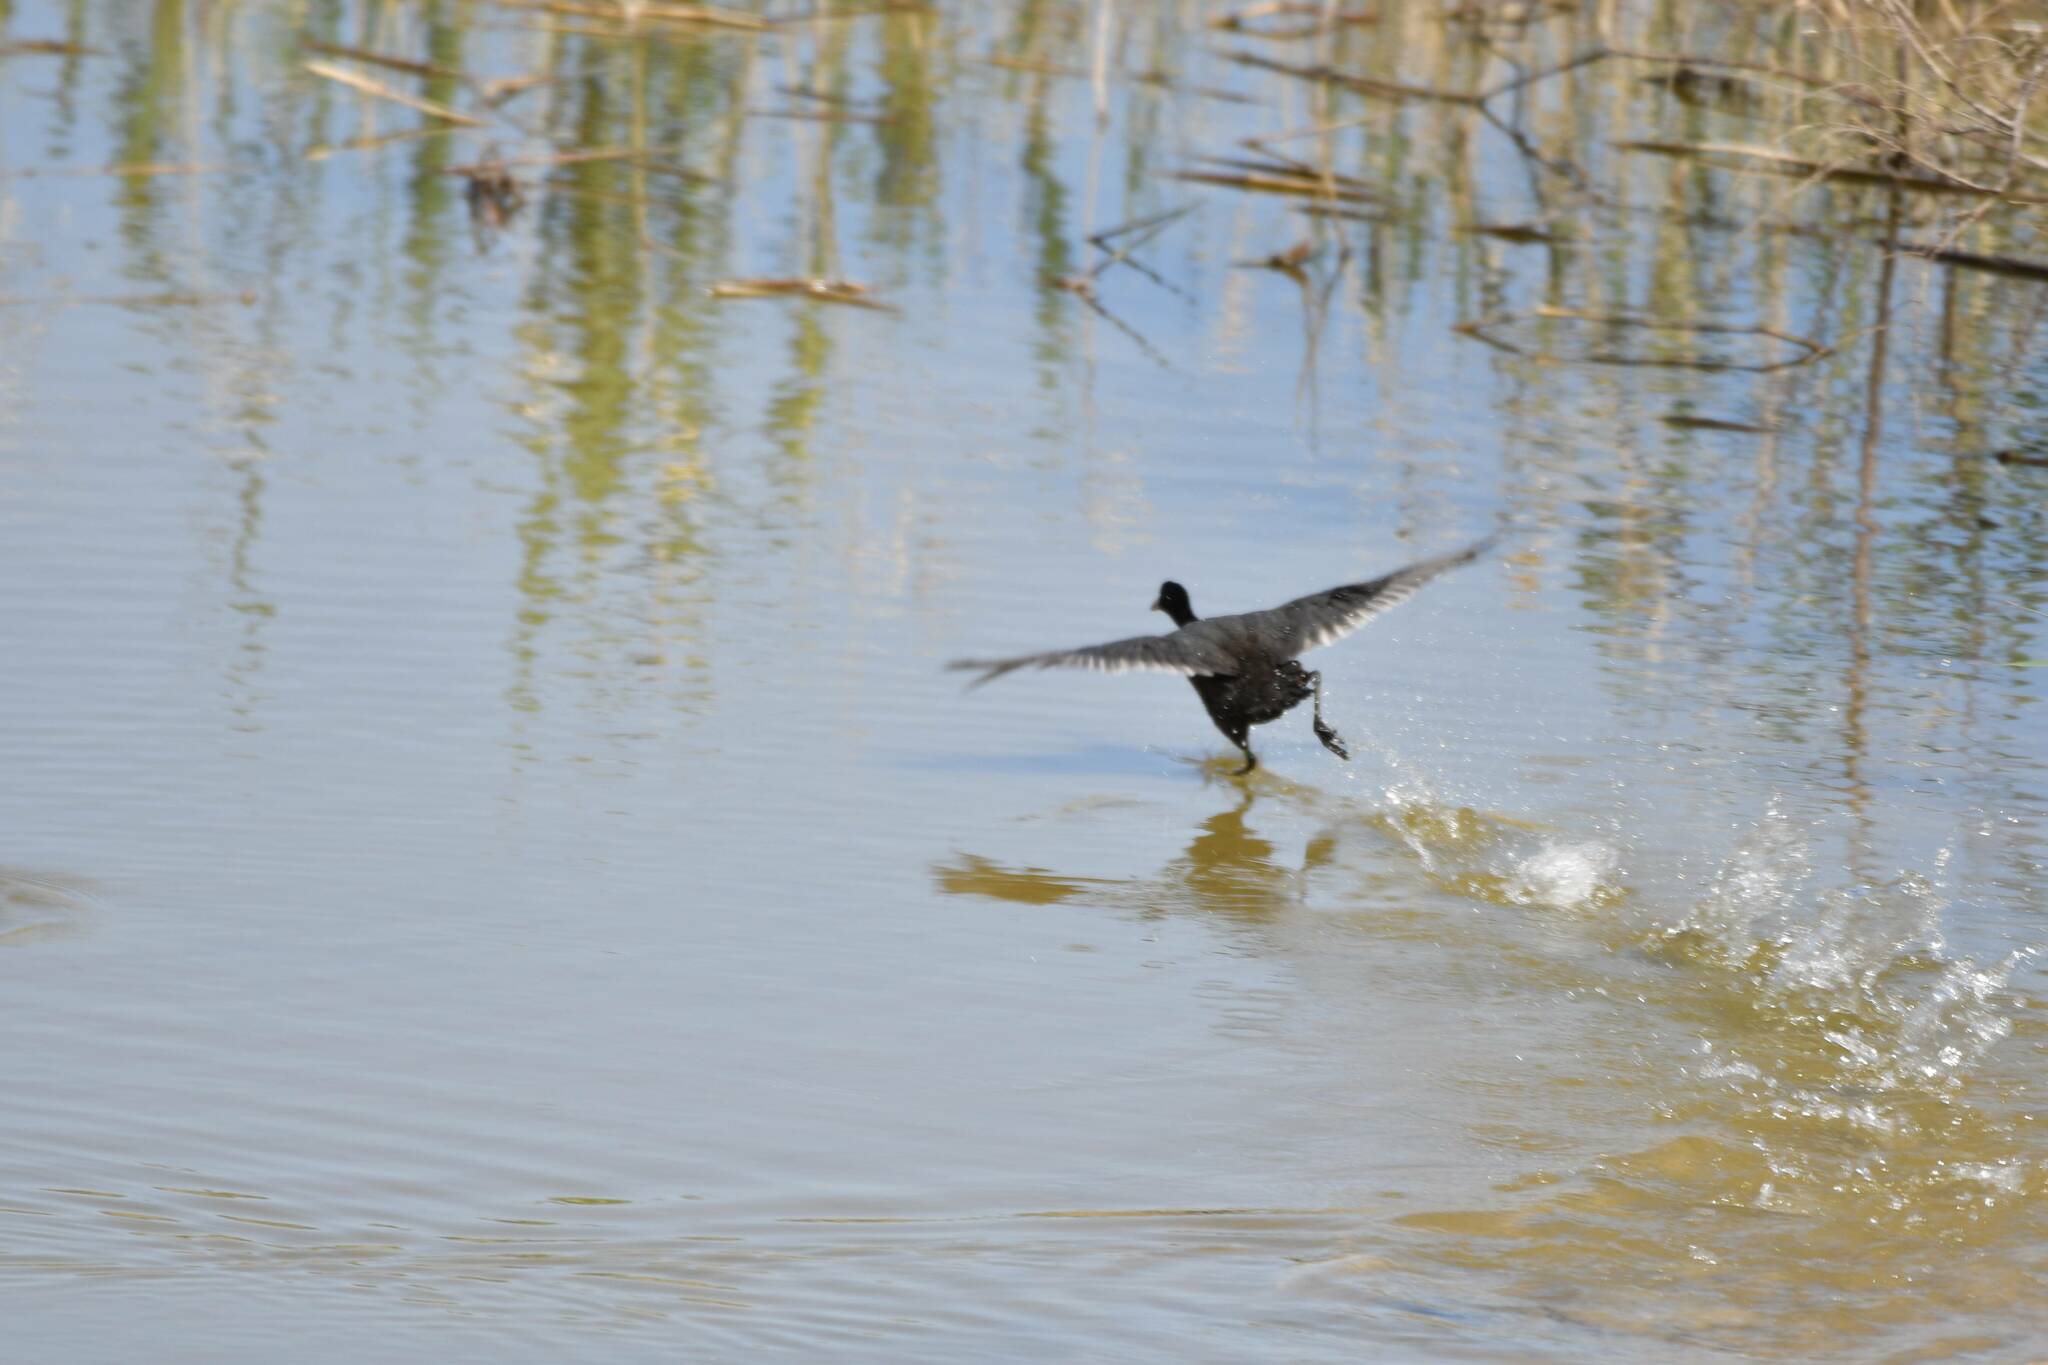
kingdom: Animalia
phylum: Chordata
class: Aves
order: Gruiformes
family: Rallidae
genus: Fulica
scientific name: Fulica atra
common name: Eurasian coot
